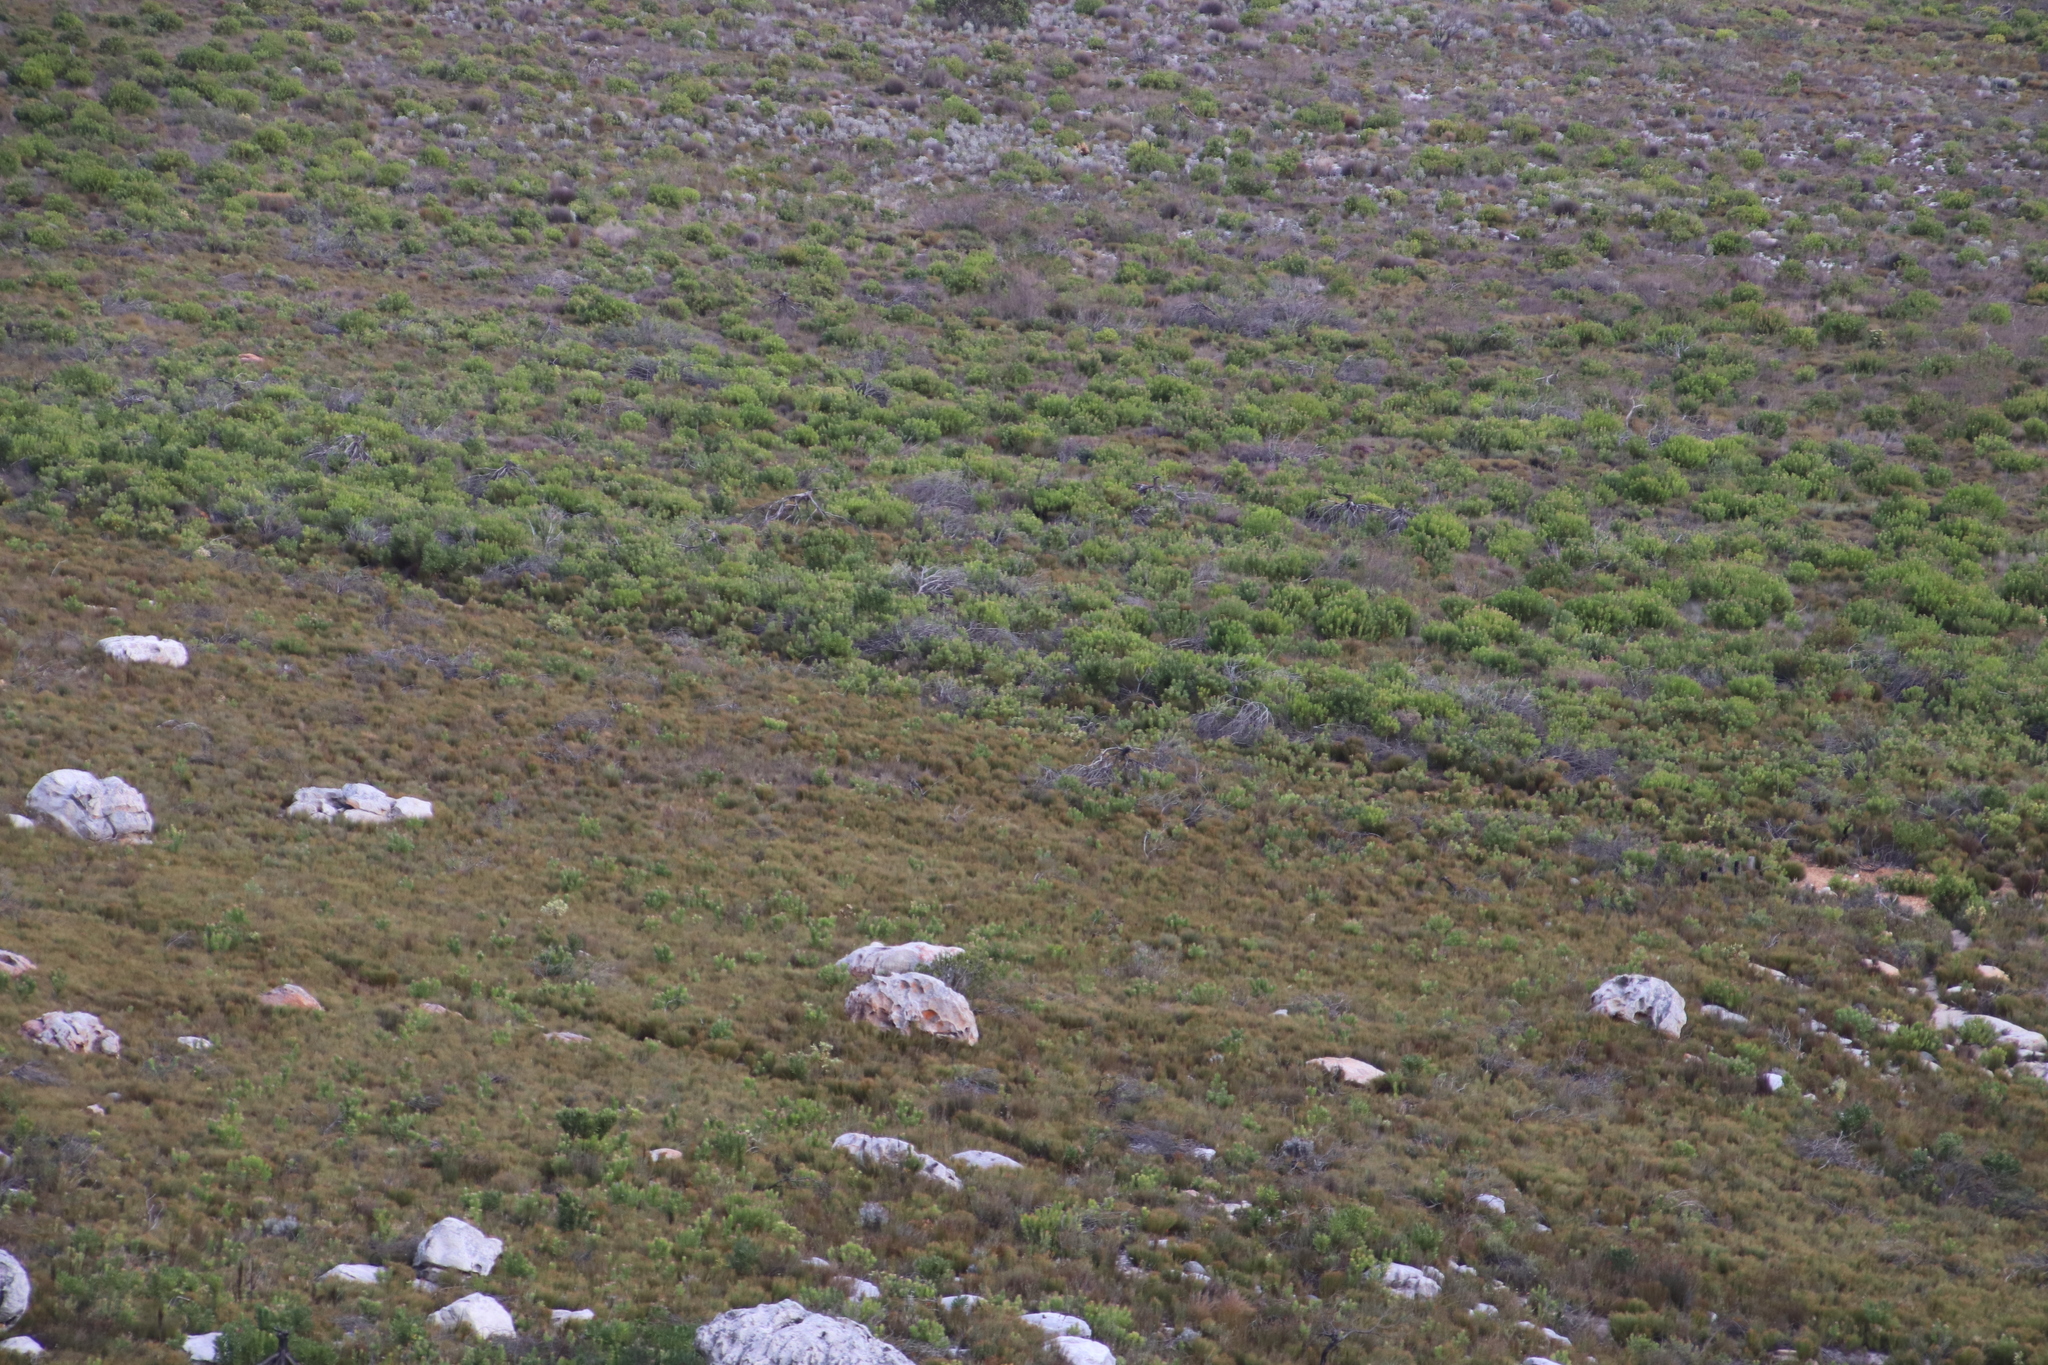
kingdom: Plantae
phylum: Tracheophyta
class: Magnoliopsida
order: Proteales
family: Proteaceae
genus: Leucadendron
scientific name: Leucadendron laureolum
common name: Golden sunshinebush
